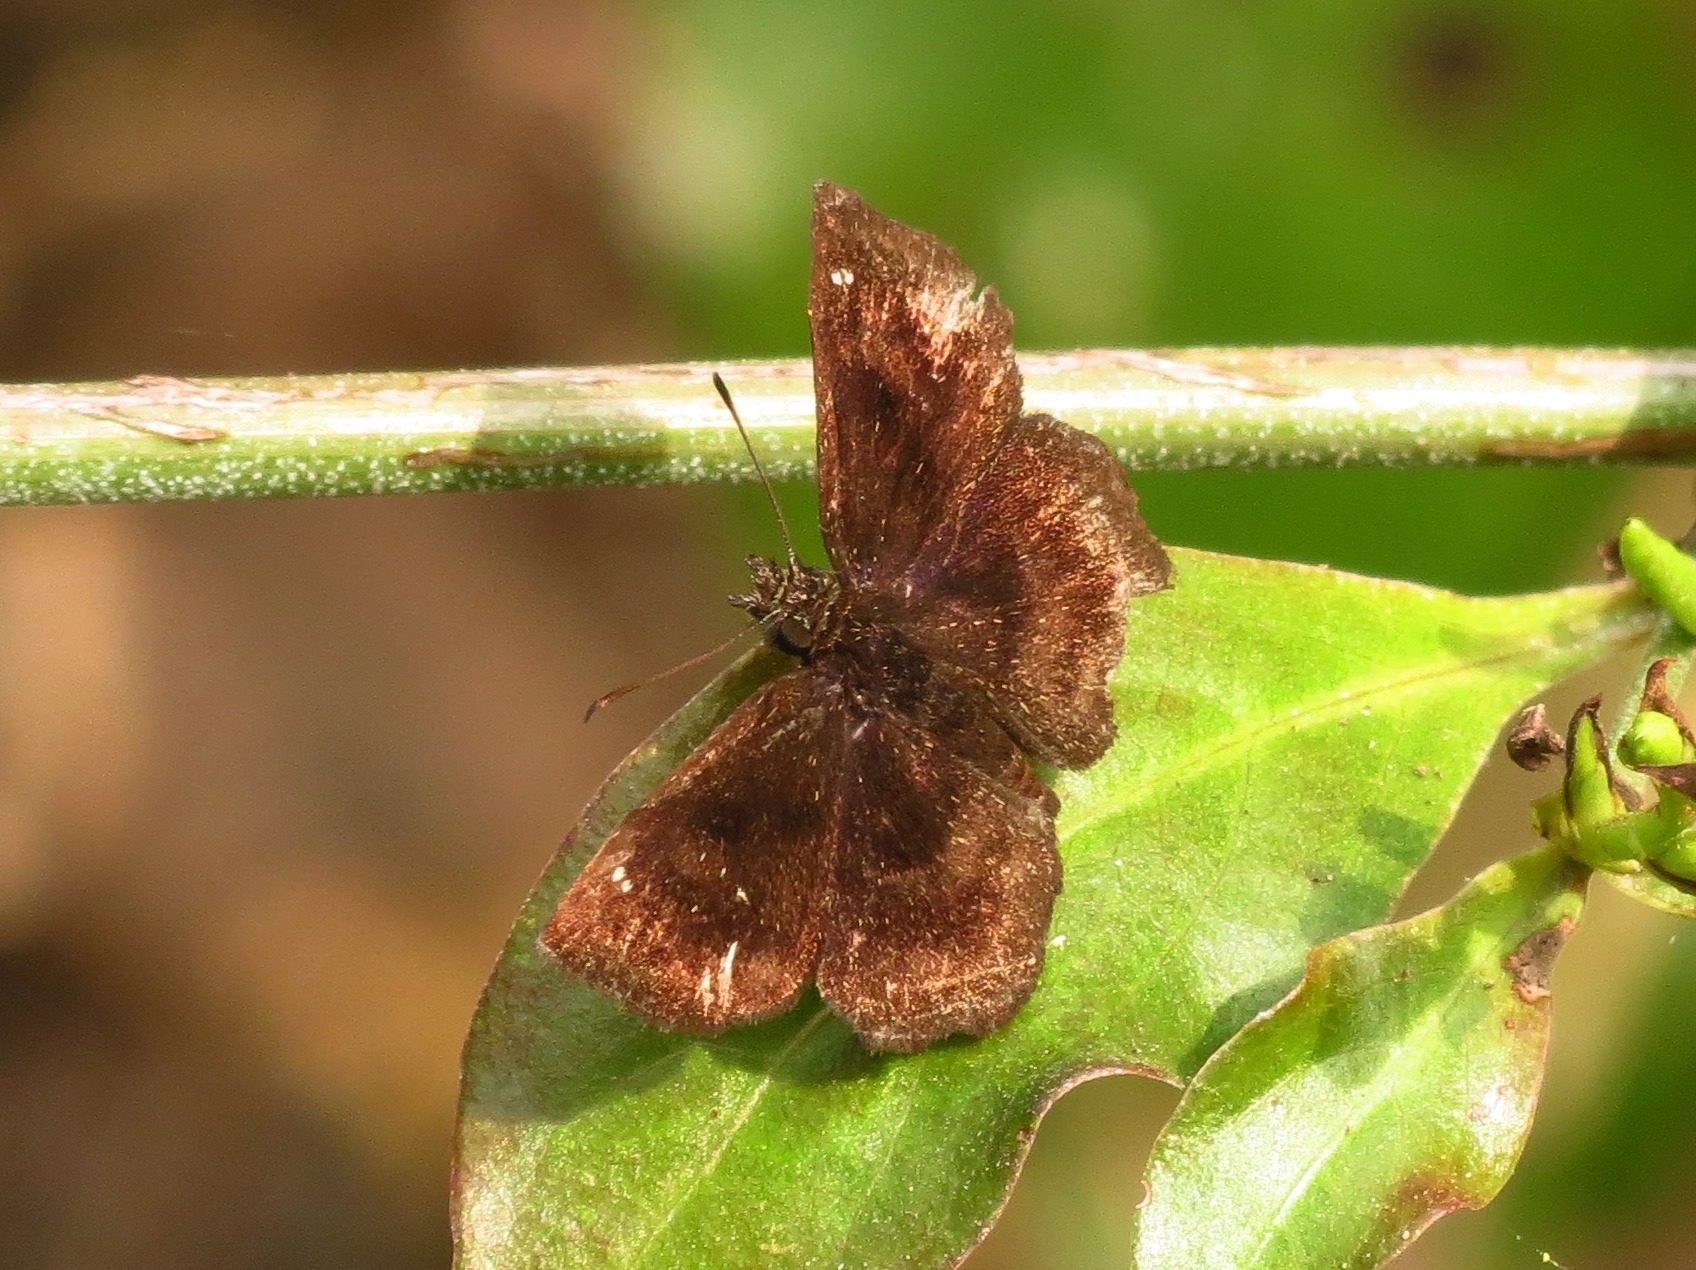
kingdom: Animalia
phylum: Arthropoda
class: Insecta
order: Lepidoptera
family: Hesperiidae
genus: Staphylus
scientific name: Staphylus mazans
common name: Mazans scallopwing
